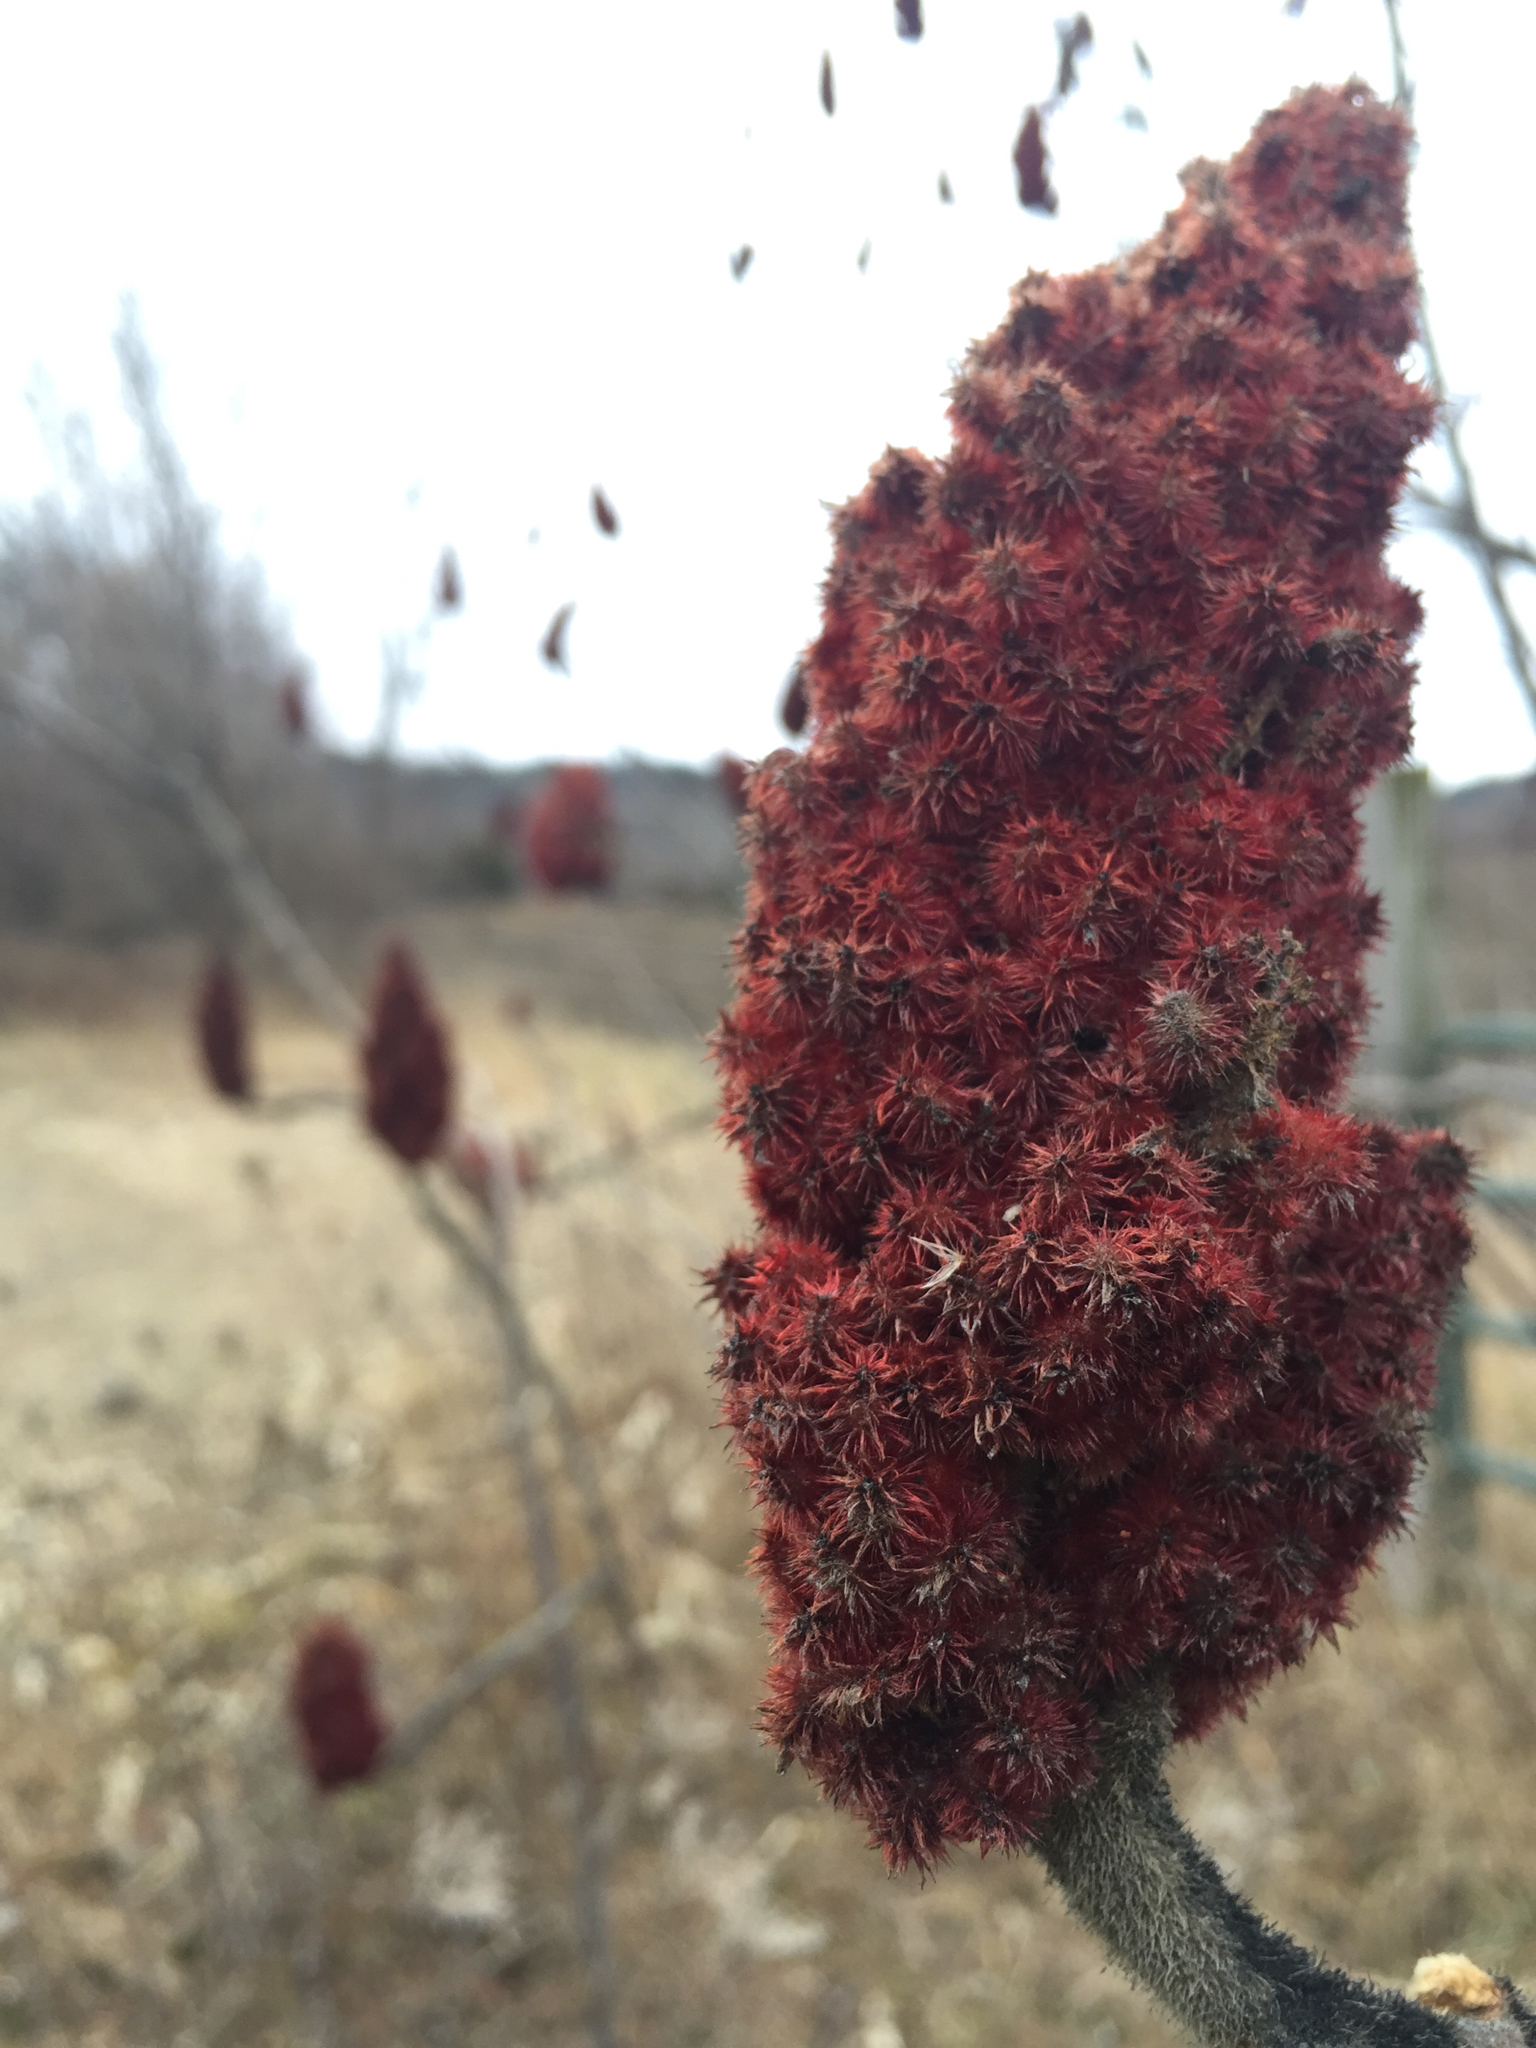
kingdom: Plantae
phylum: Tracheophyta
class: Magnoliopsida
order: Sapindales
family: Anacardiaceae
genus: Rhus
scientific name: Rhus typhina
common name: Staghorn sumac
